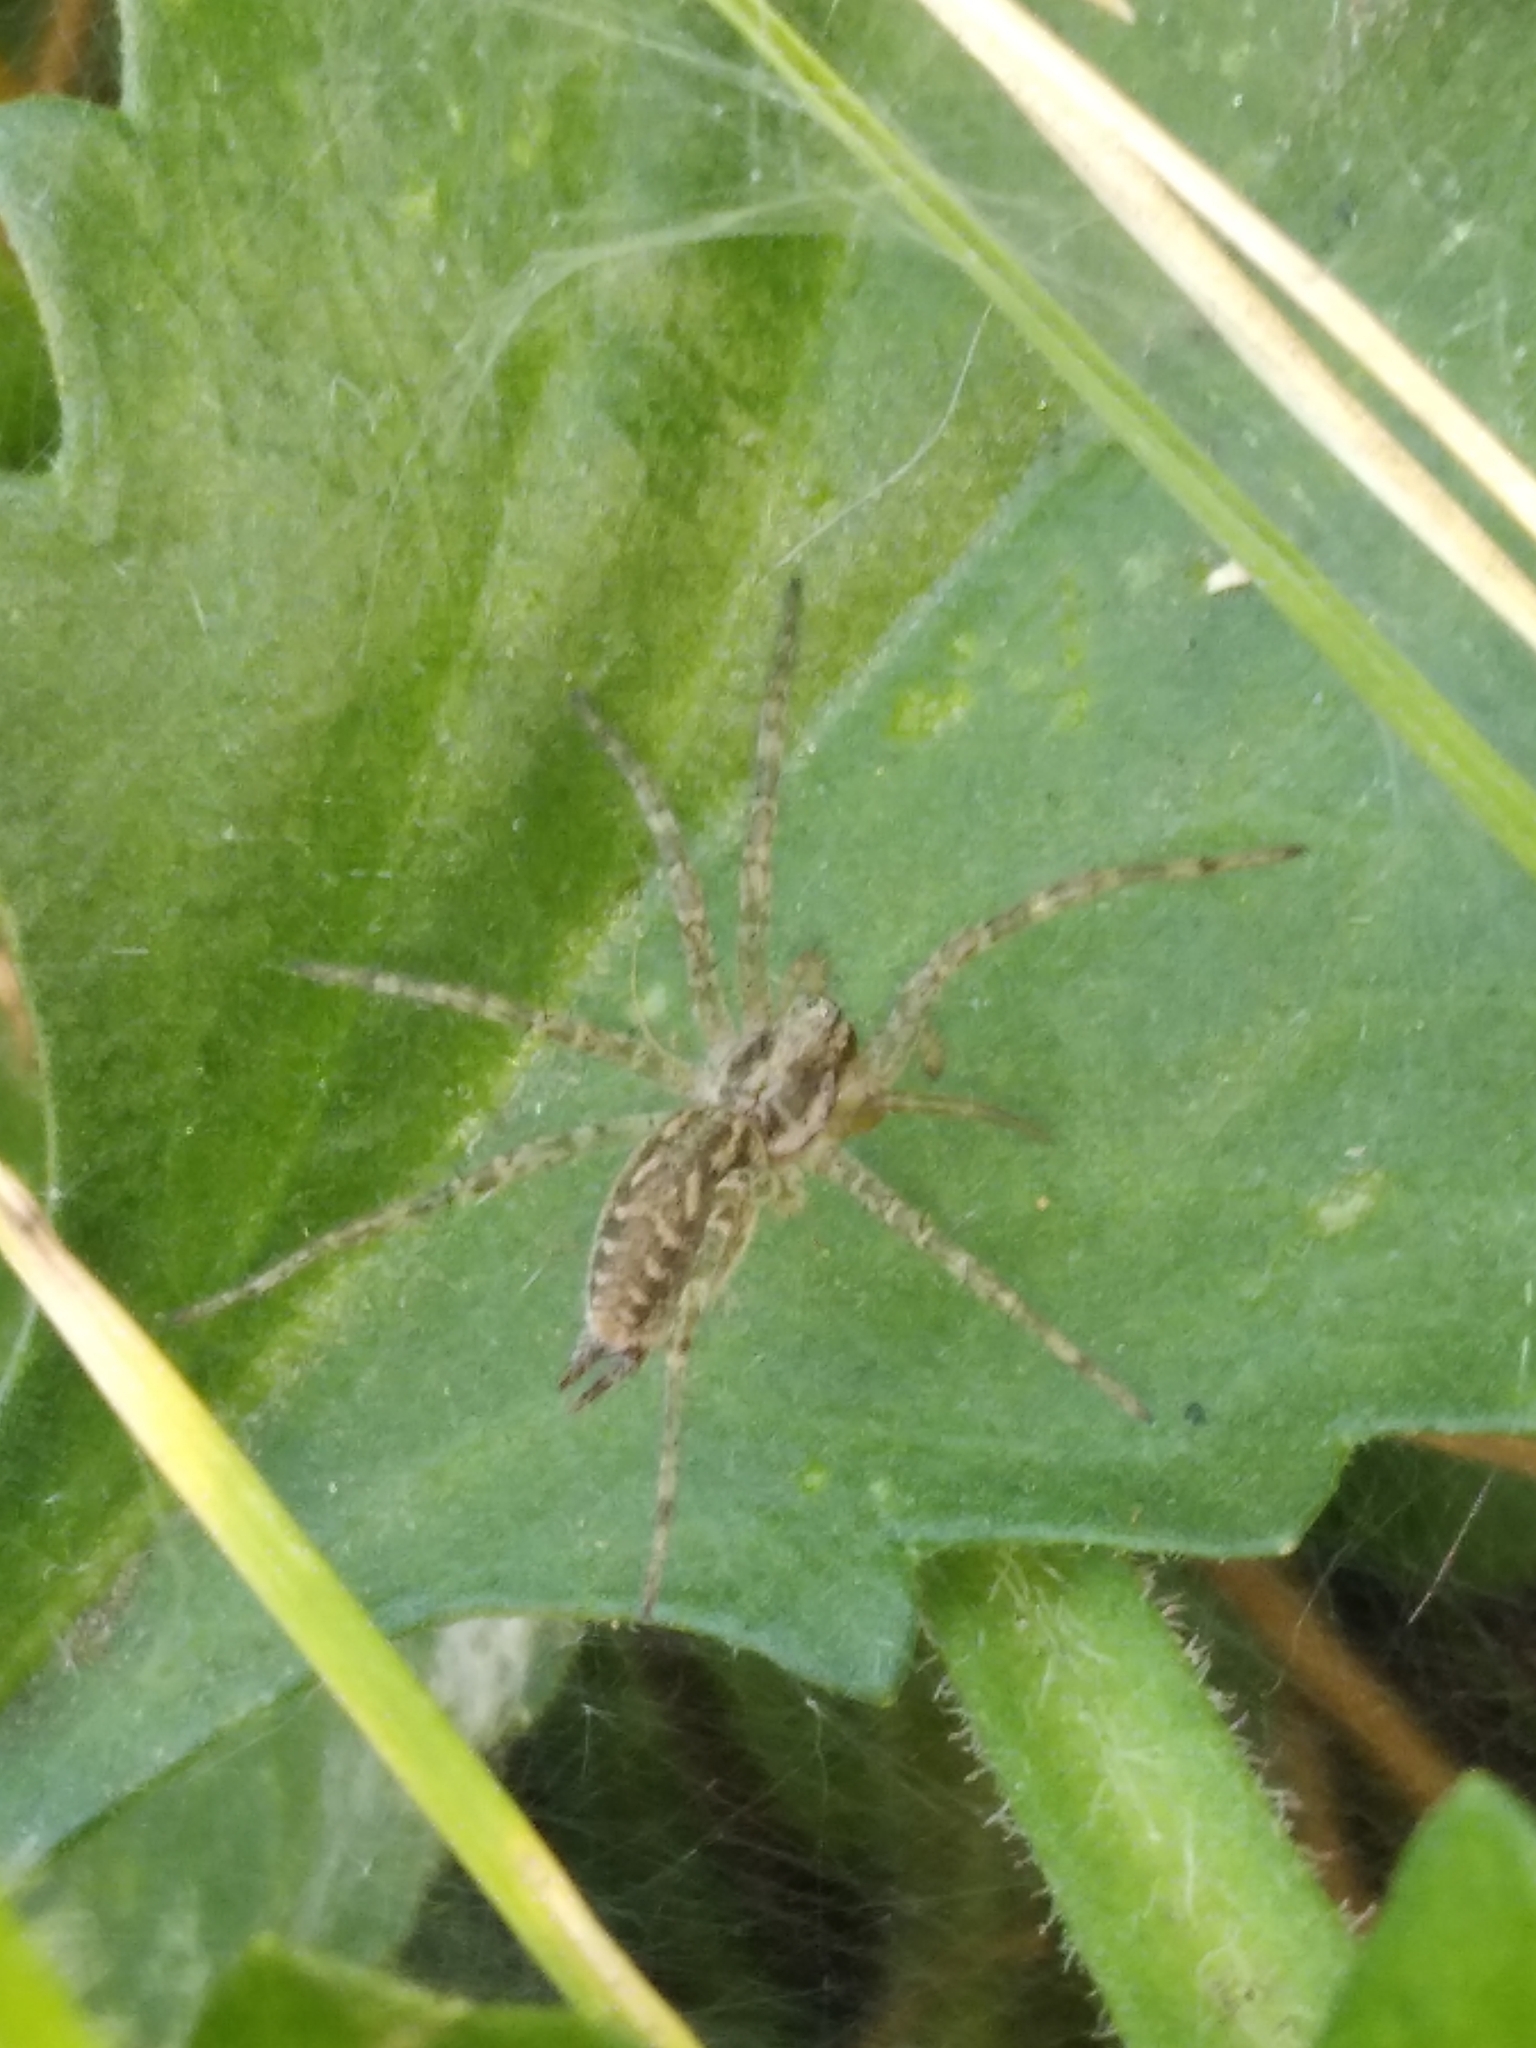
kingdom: Animalia
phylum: Arthropoda
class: Arachnida
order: Araneae
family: Agelenidae
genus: Allagelena
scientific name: Allagelena gracilens
